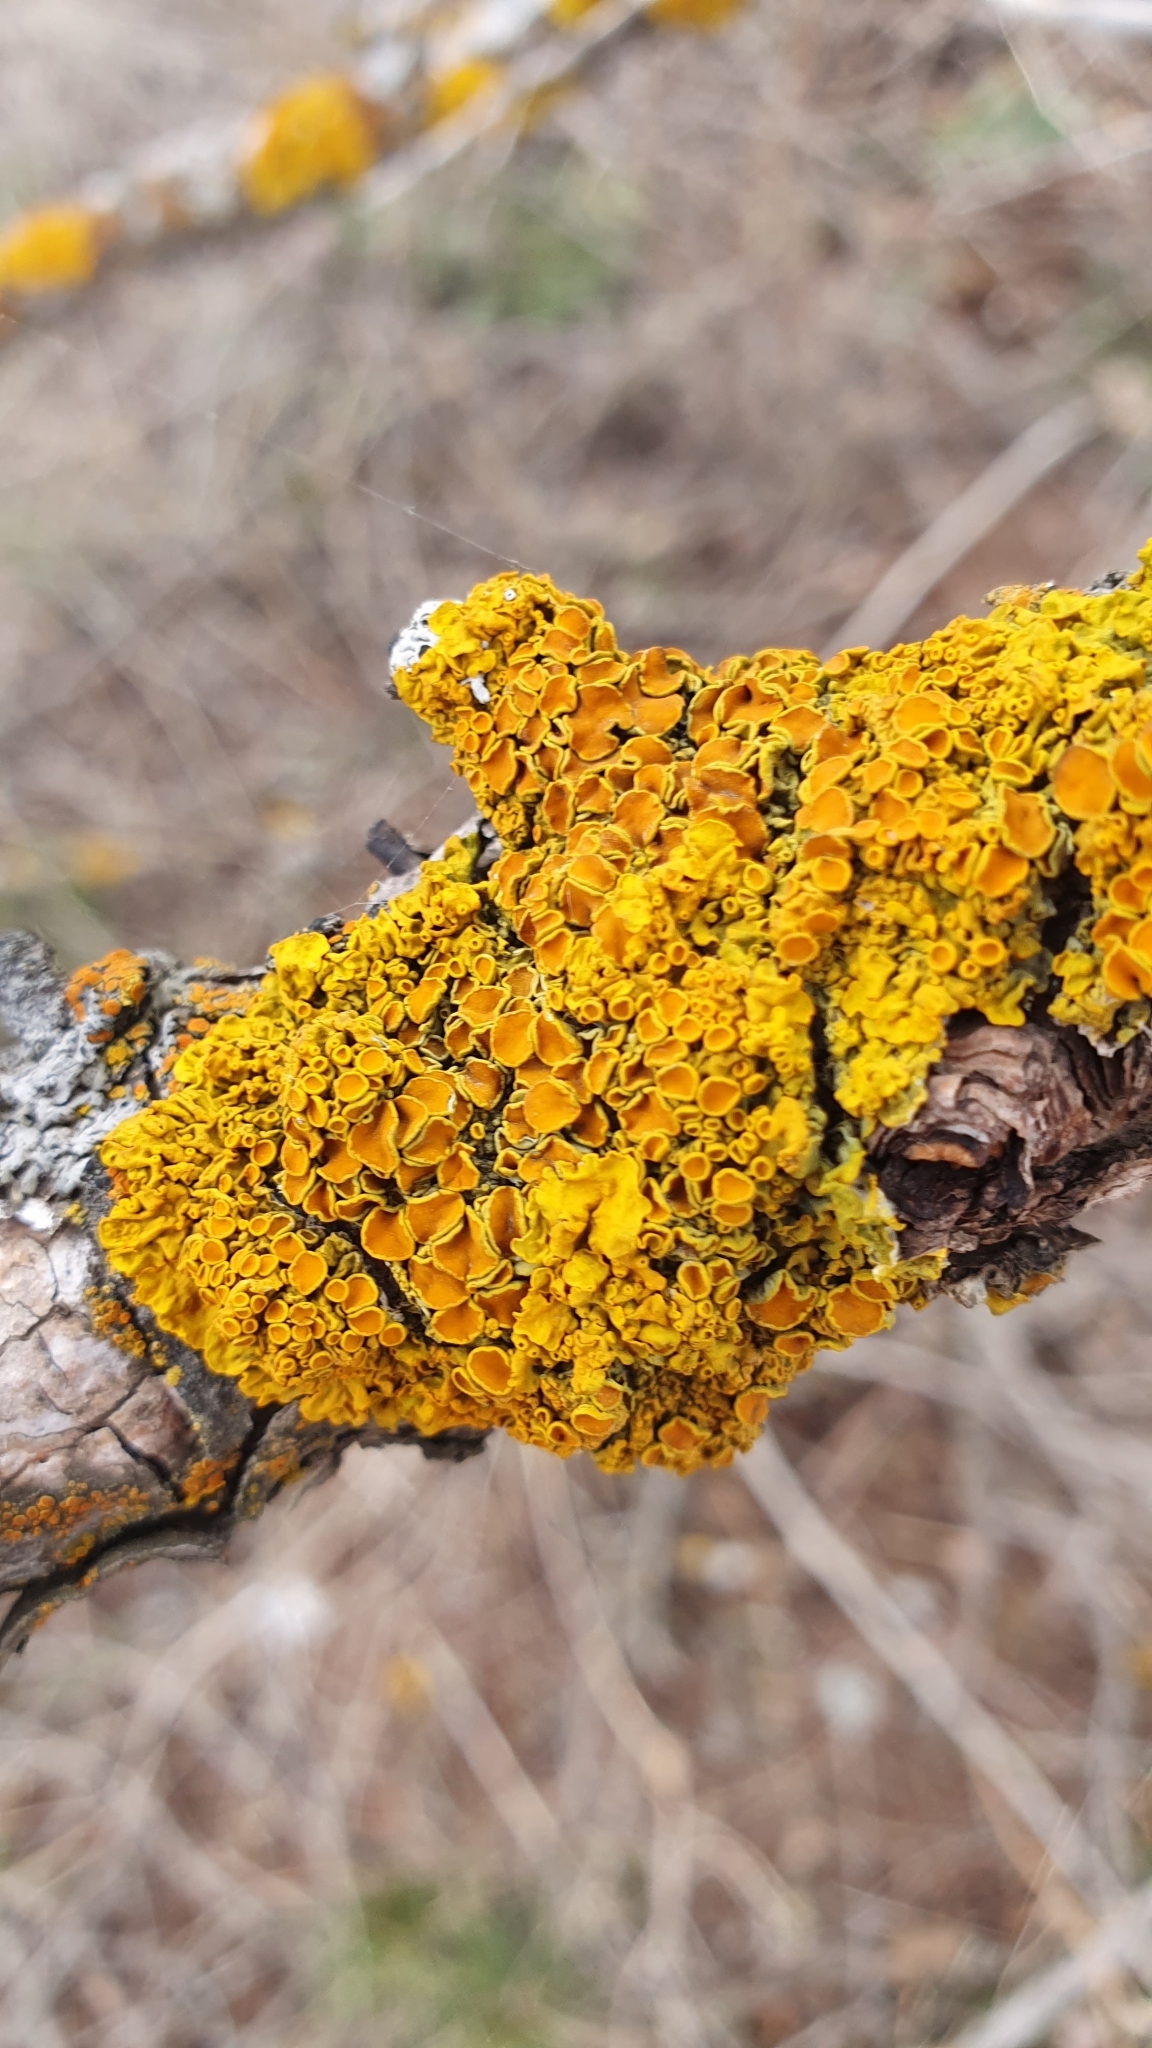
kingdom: Fungi
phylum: Ascomycota
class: Lecanoromycetes
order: Teloschistales
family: Teloschistaceae
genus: Xanthoria
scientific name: Xanthoria parietina
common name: Common orange lichen
